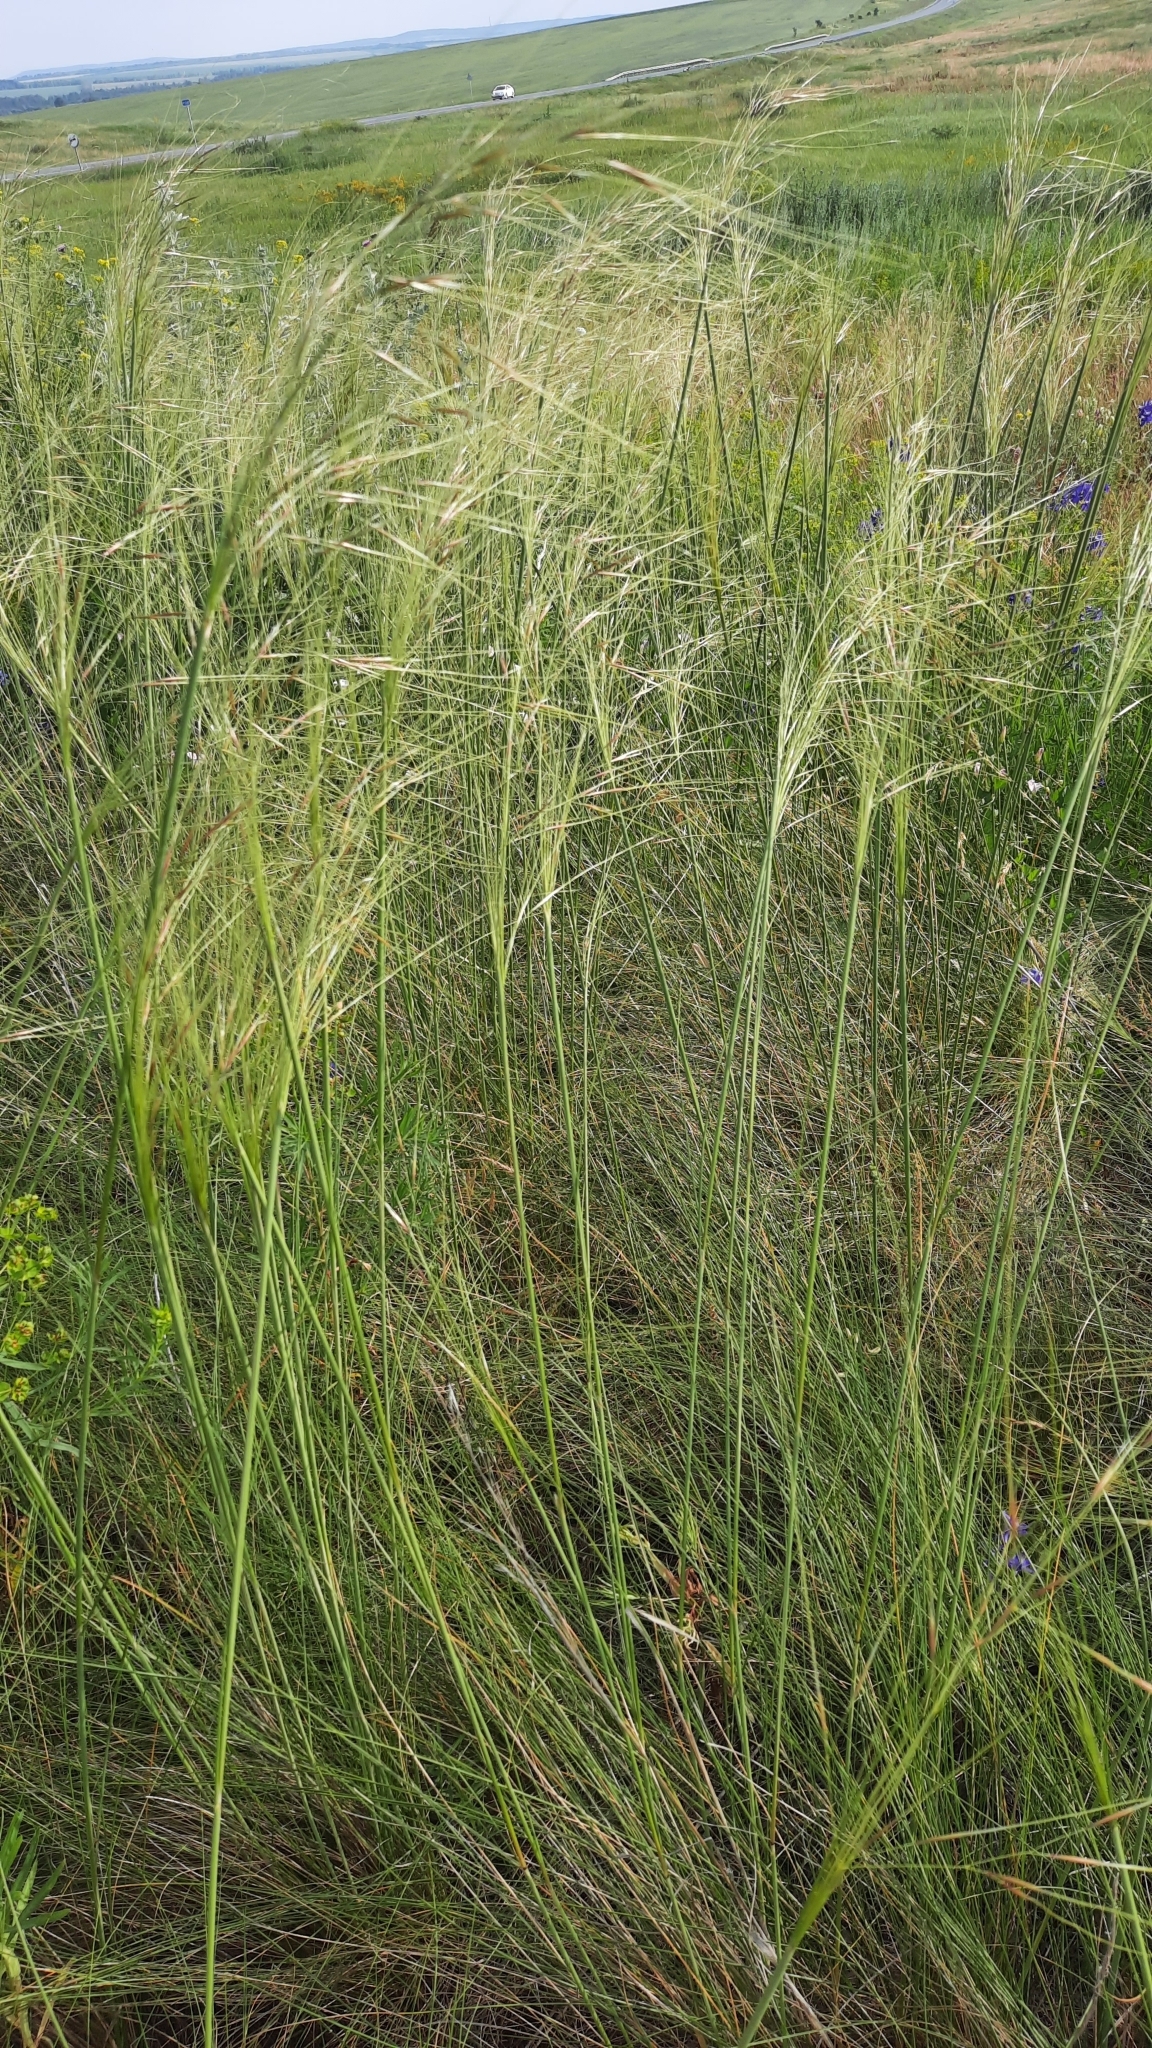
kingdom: Plantae
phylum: Tracheophyta
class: Liliopsida
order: Poales
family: Poaceae
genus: Stipa
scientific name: Stipa capillata
